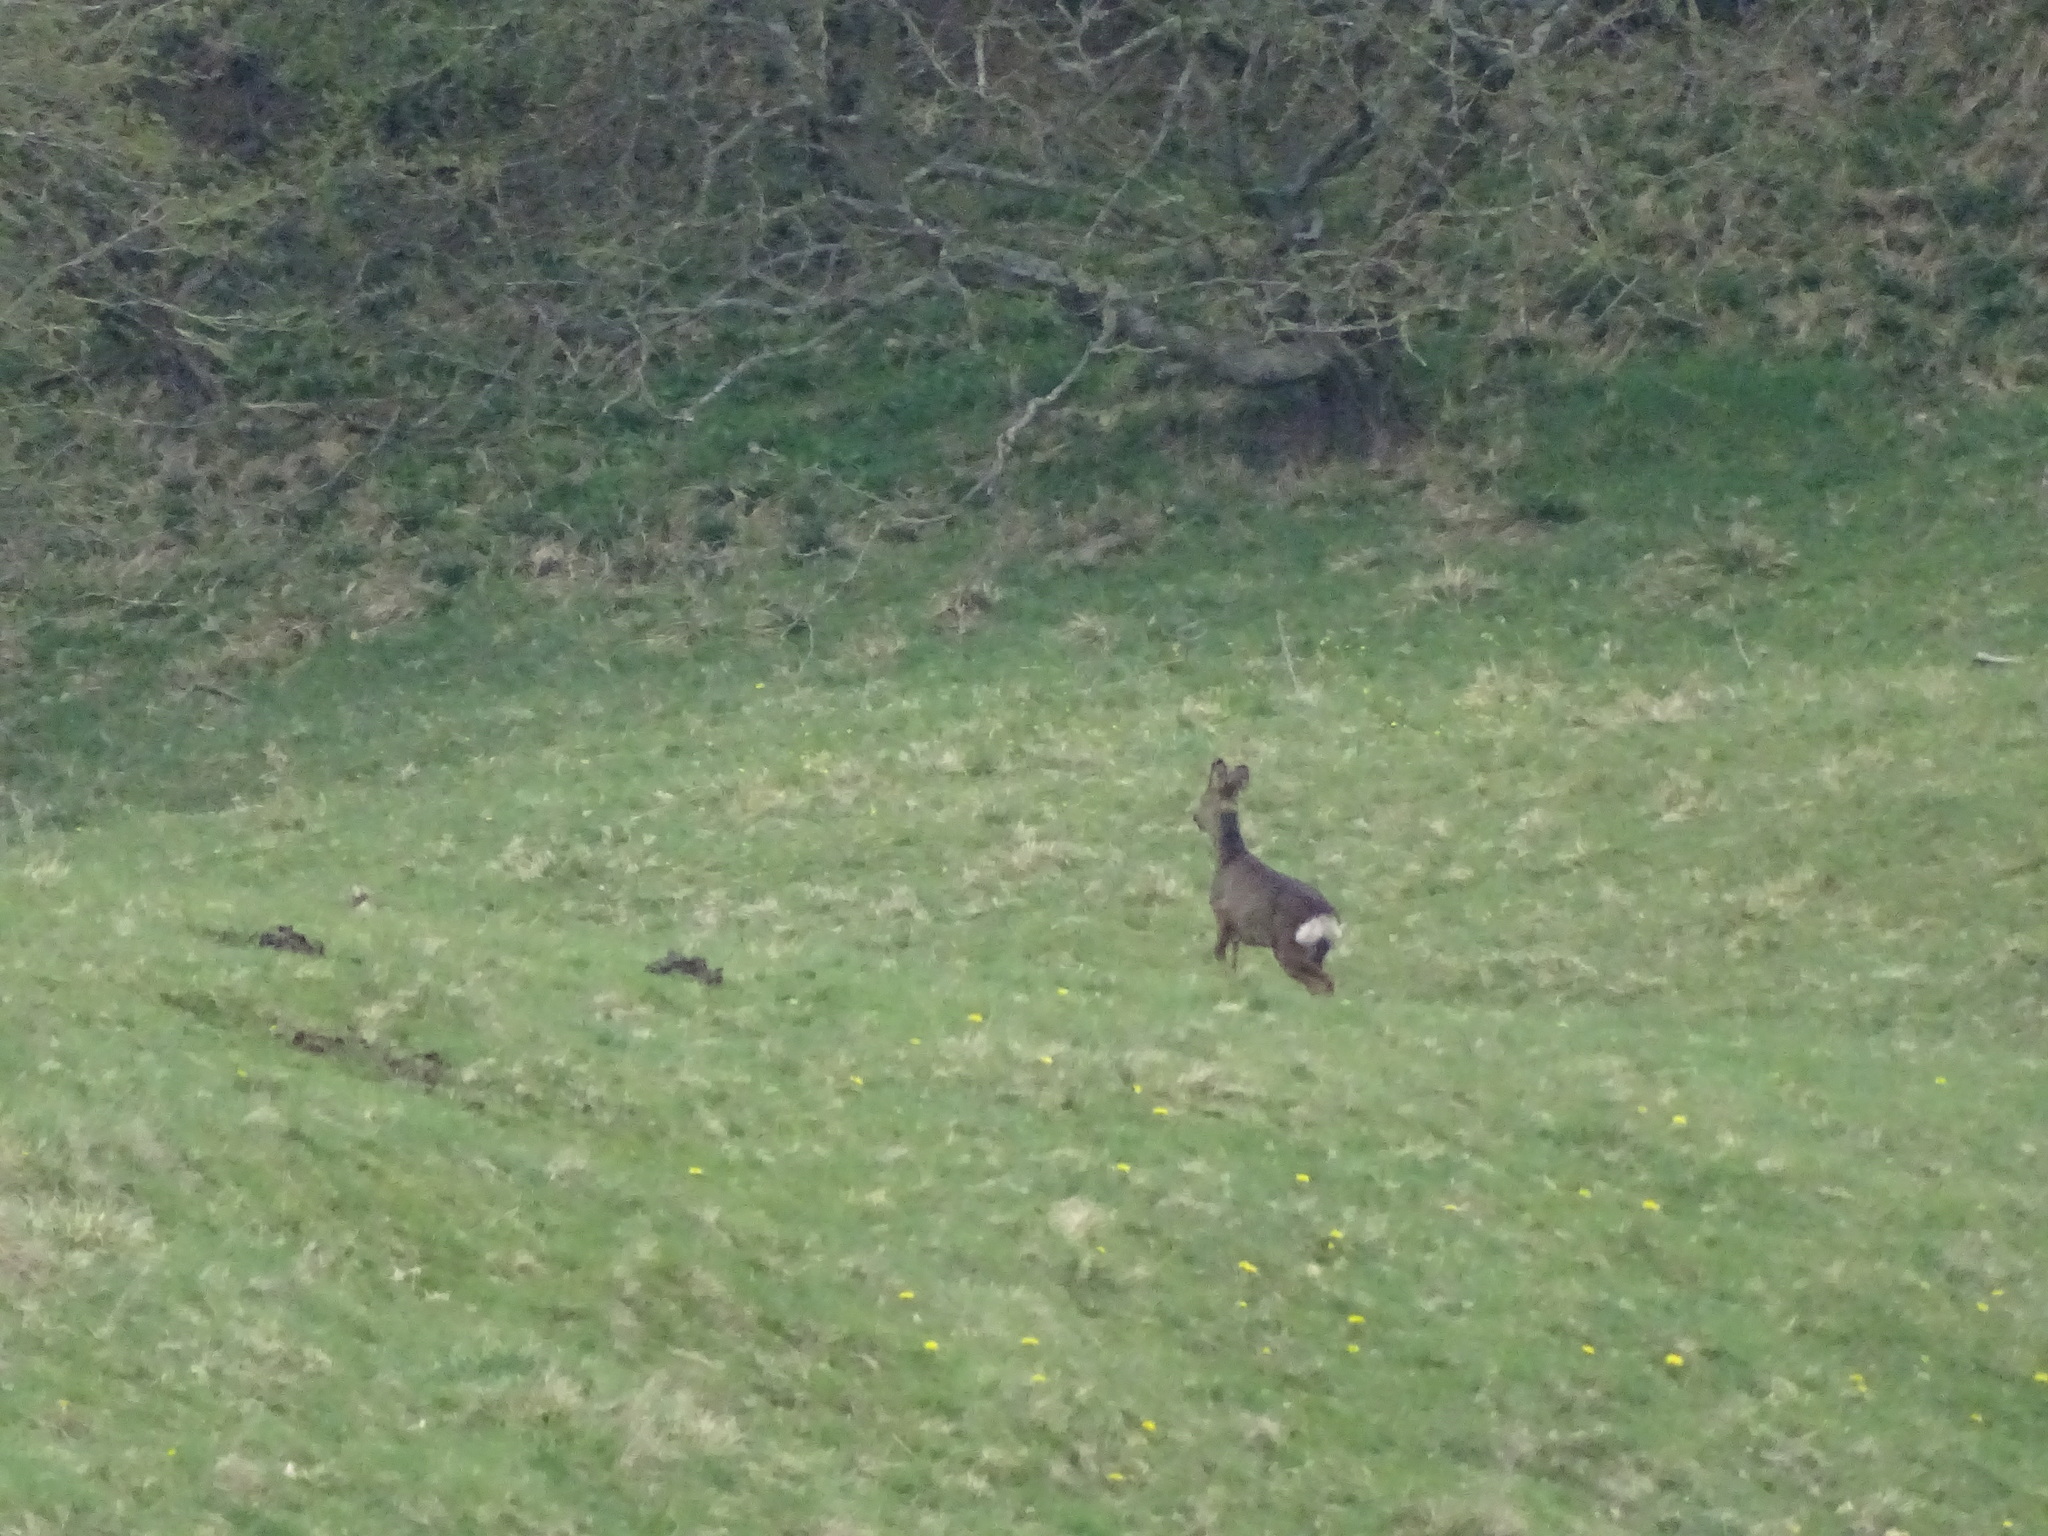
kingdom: Animalia
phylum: Chordata
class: Mammalia
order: Artiodactyla
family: Cervidae
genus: Capreolus
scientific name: Capreolus capreolus
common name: Western roe deer
